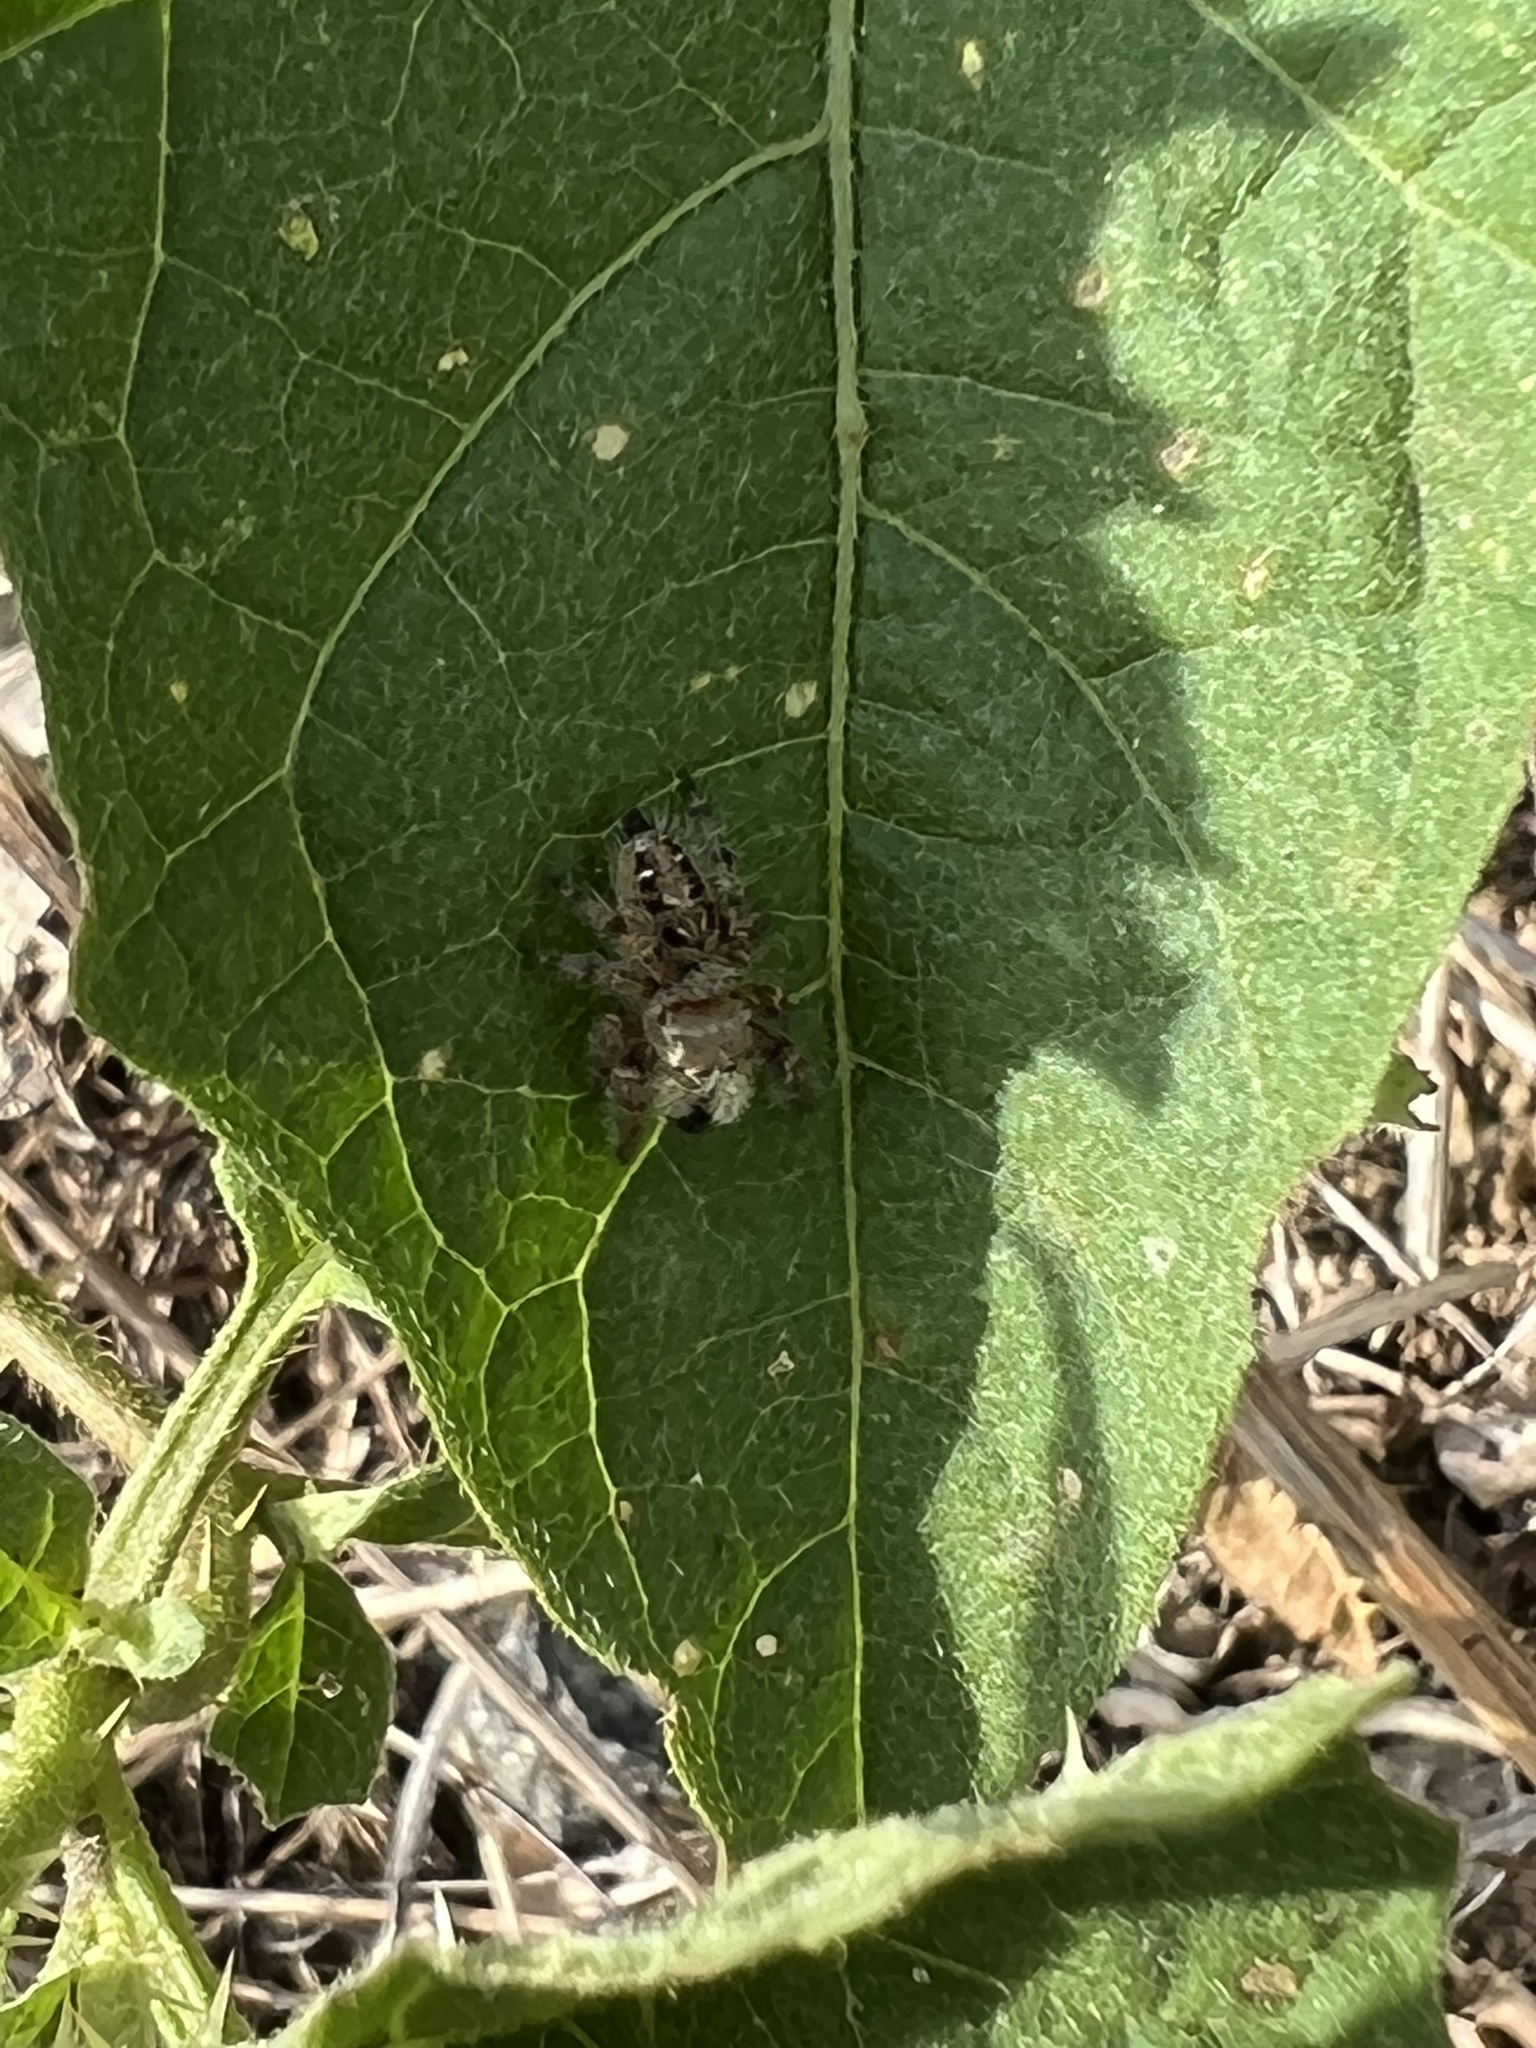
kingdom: Animalia
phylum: Arthropoda
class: Arachnida
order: Araneae
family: Salticidae
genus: Phidippus
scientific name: Phidippus princeps
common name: Grayish jumping spider
